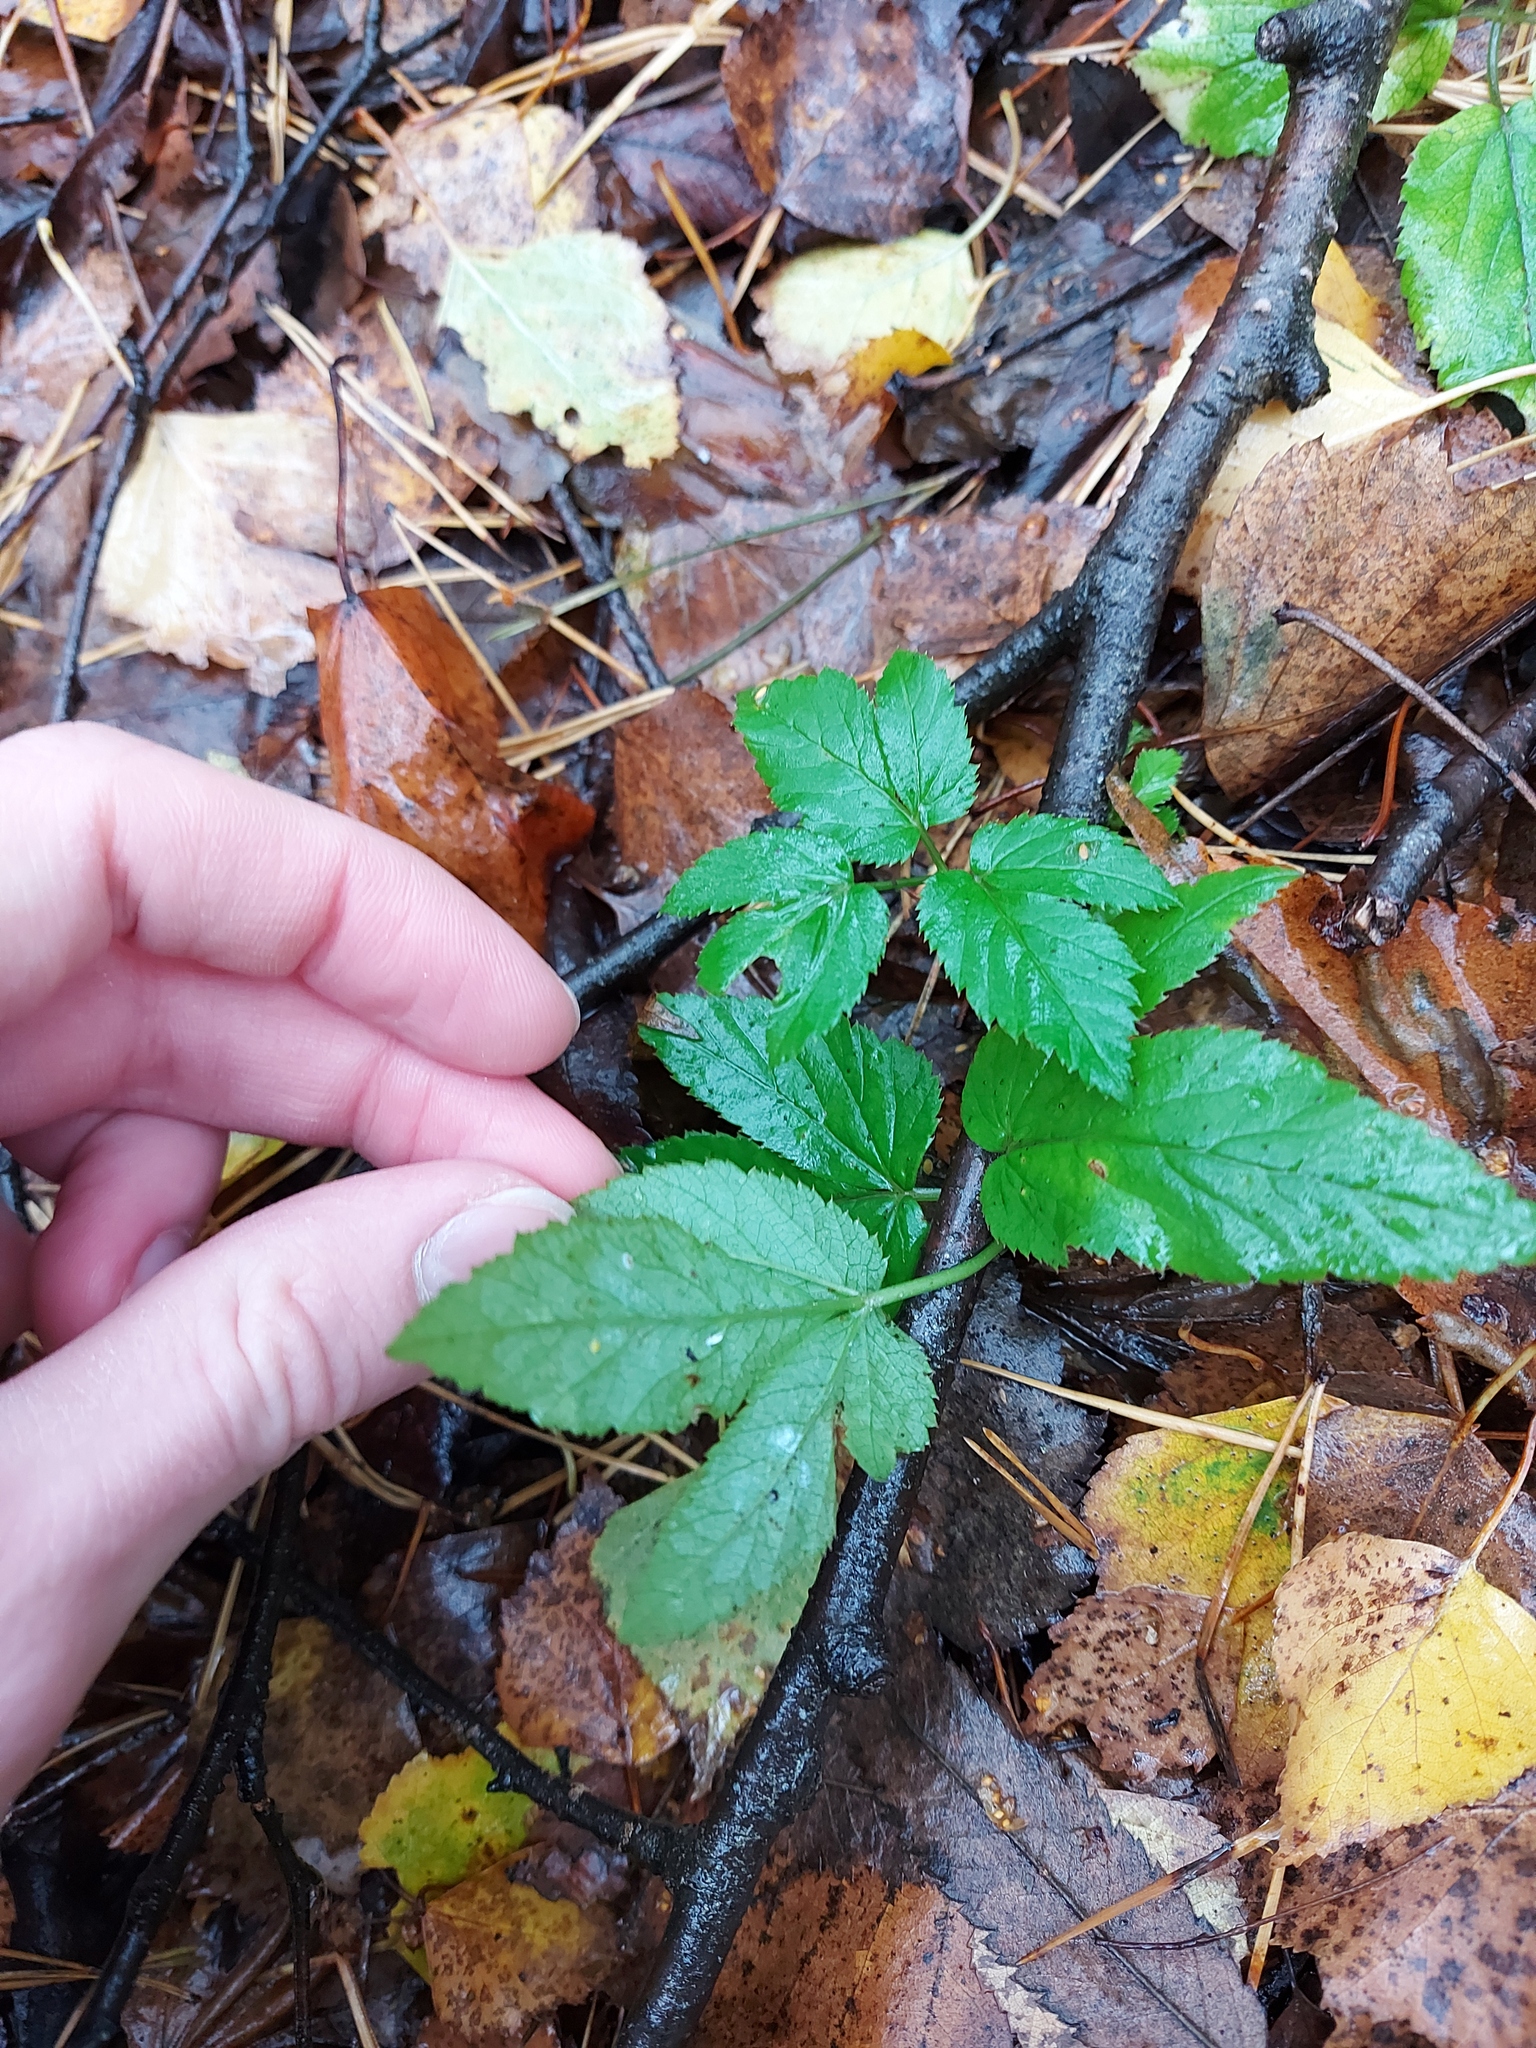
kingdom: Plantae
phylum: Tracheophyta
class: Magnoliopsida
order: Apiales
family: Apiaceae
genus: Aegopodium
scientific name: Aegopodium podagraria
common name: Ground-elder
